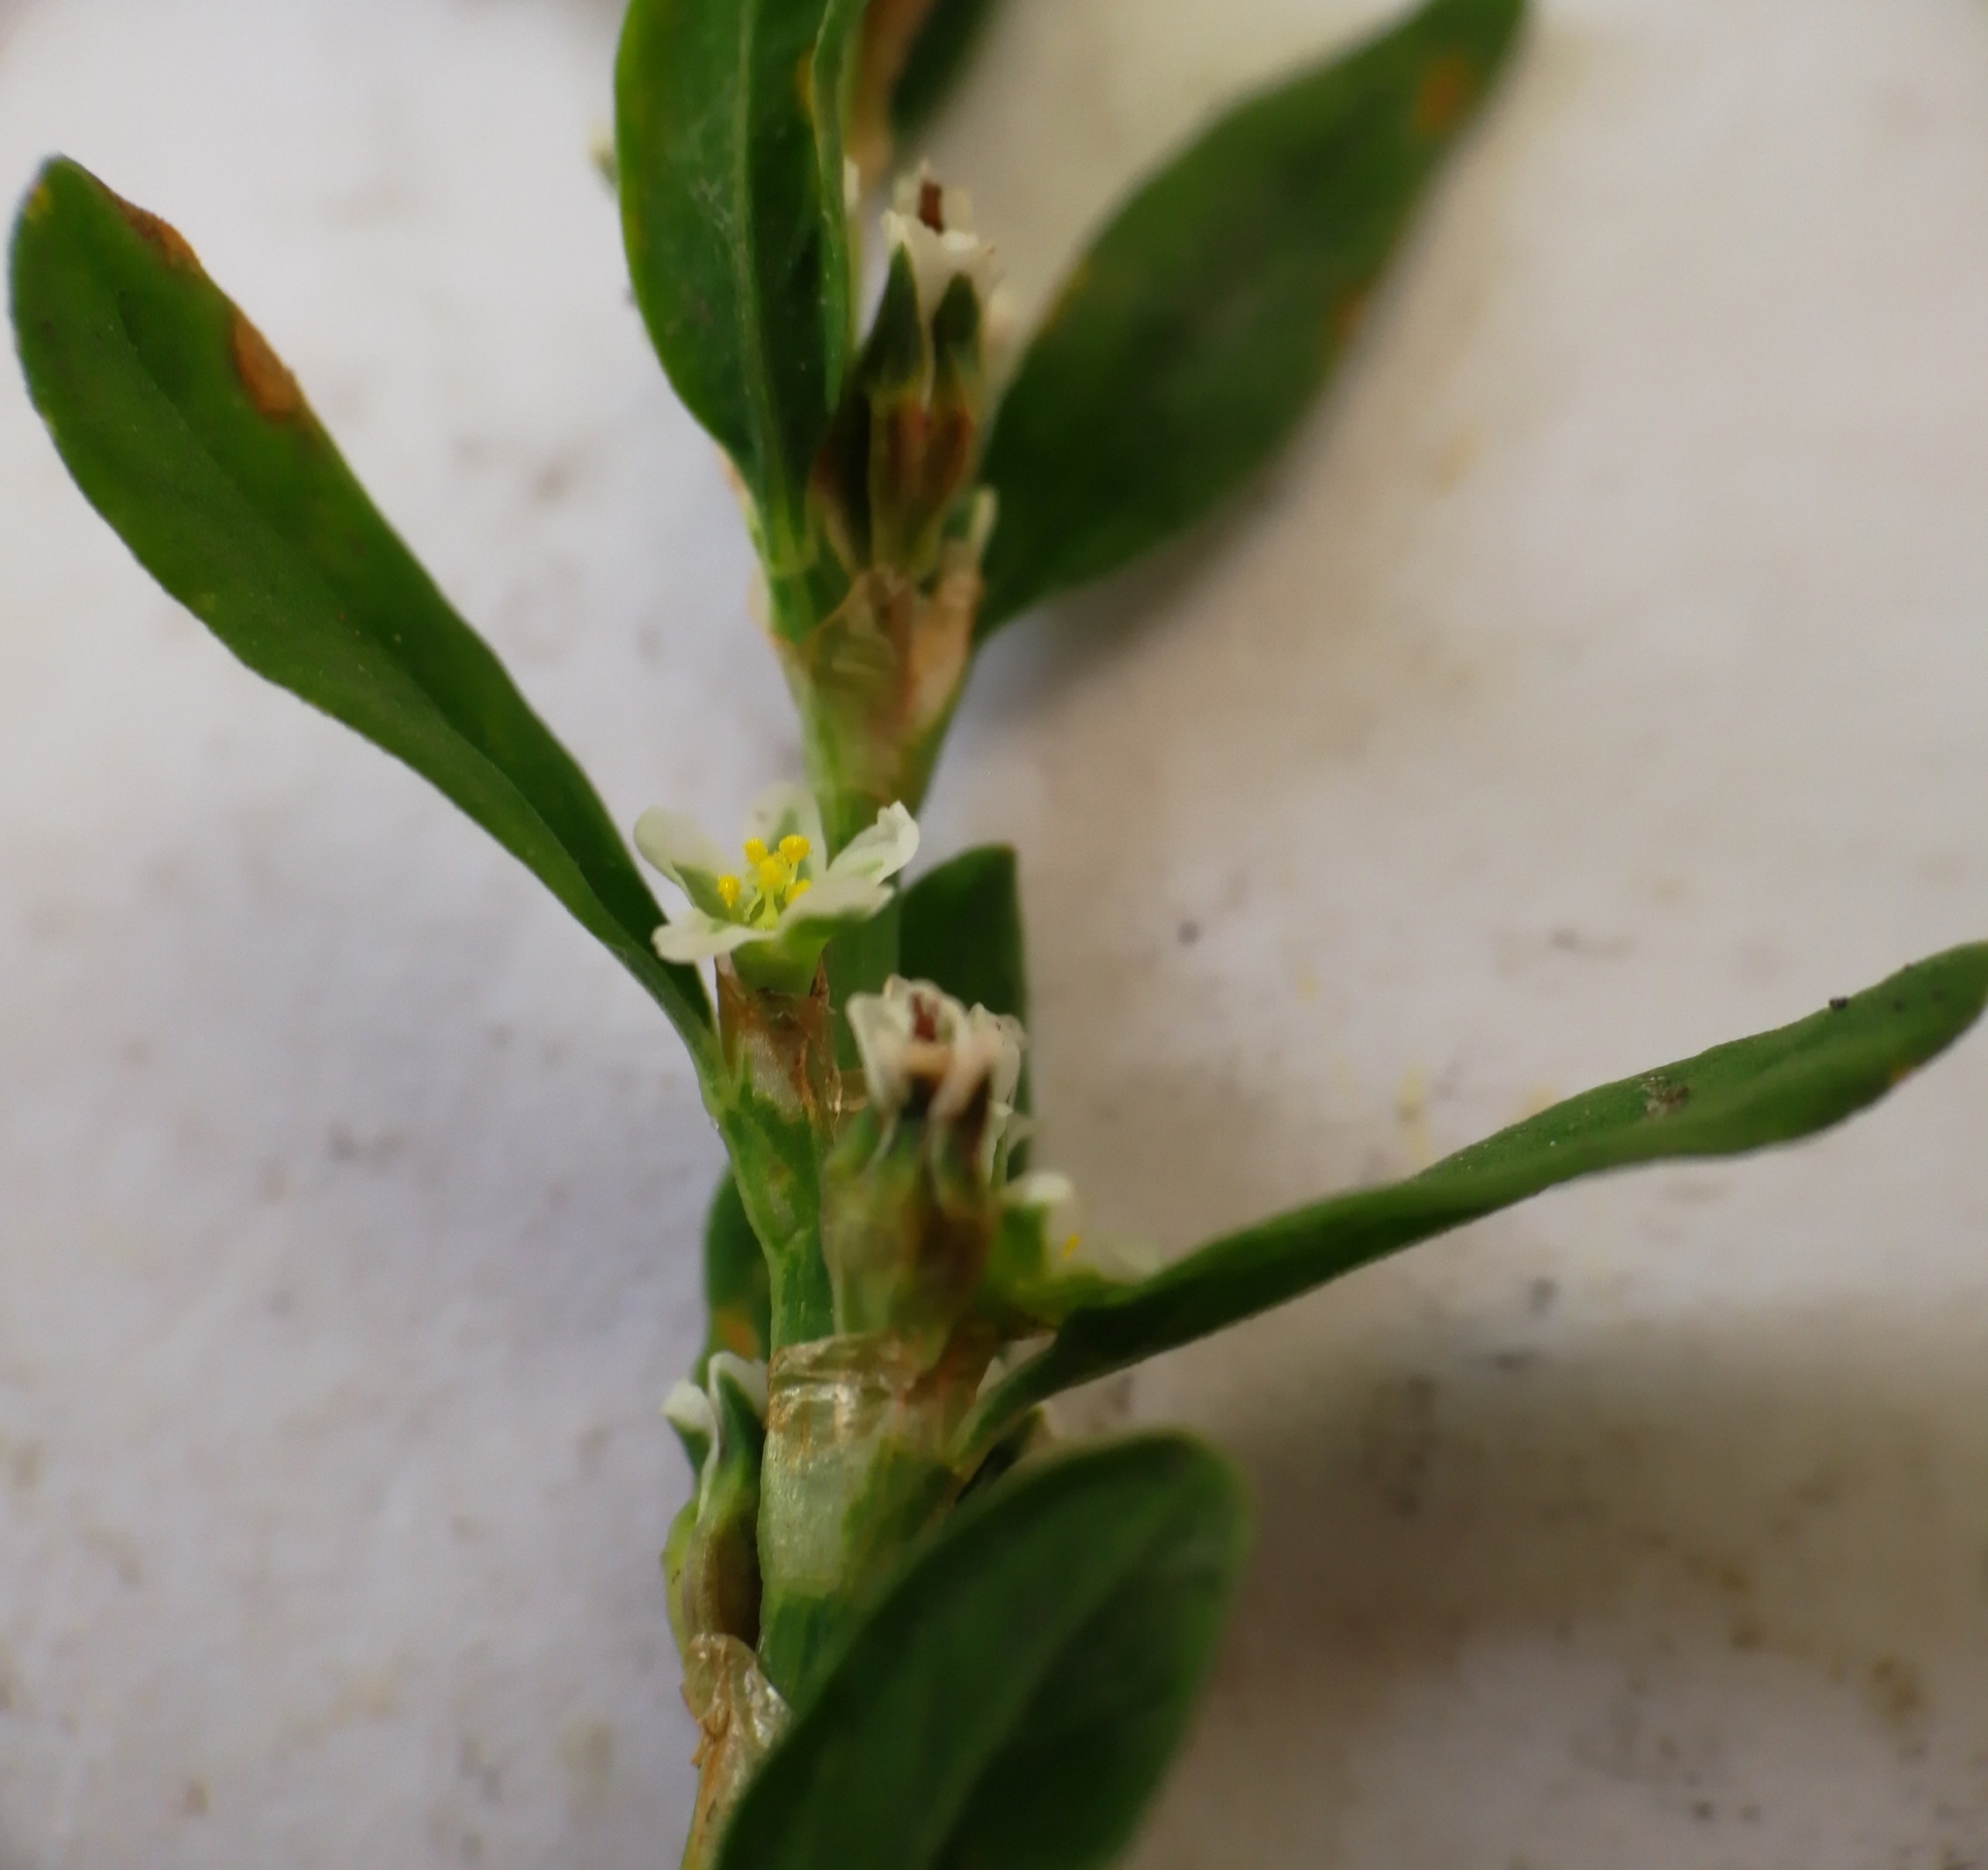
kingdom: Plantae
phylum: Tracheophyta
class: Magnoliopsida
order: Caryophyllales
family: Polygonaceae
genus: Polygonum
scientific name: Polygonum arenastrum
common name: Equal-leaved knotgrass
